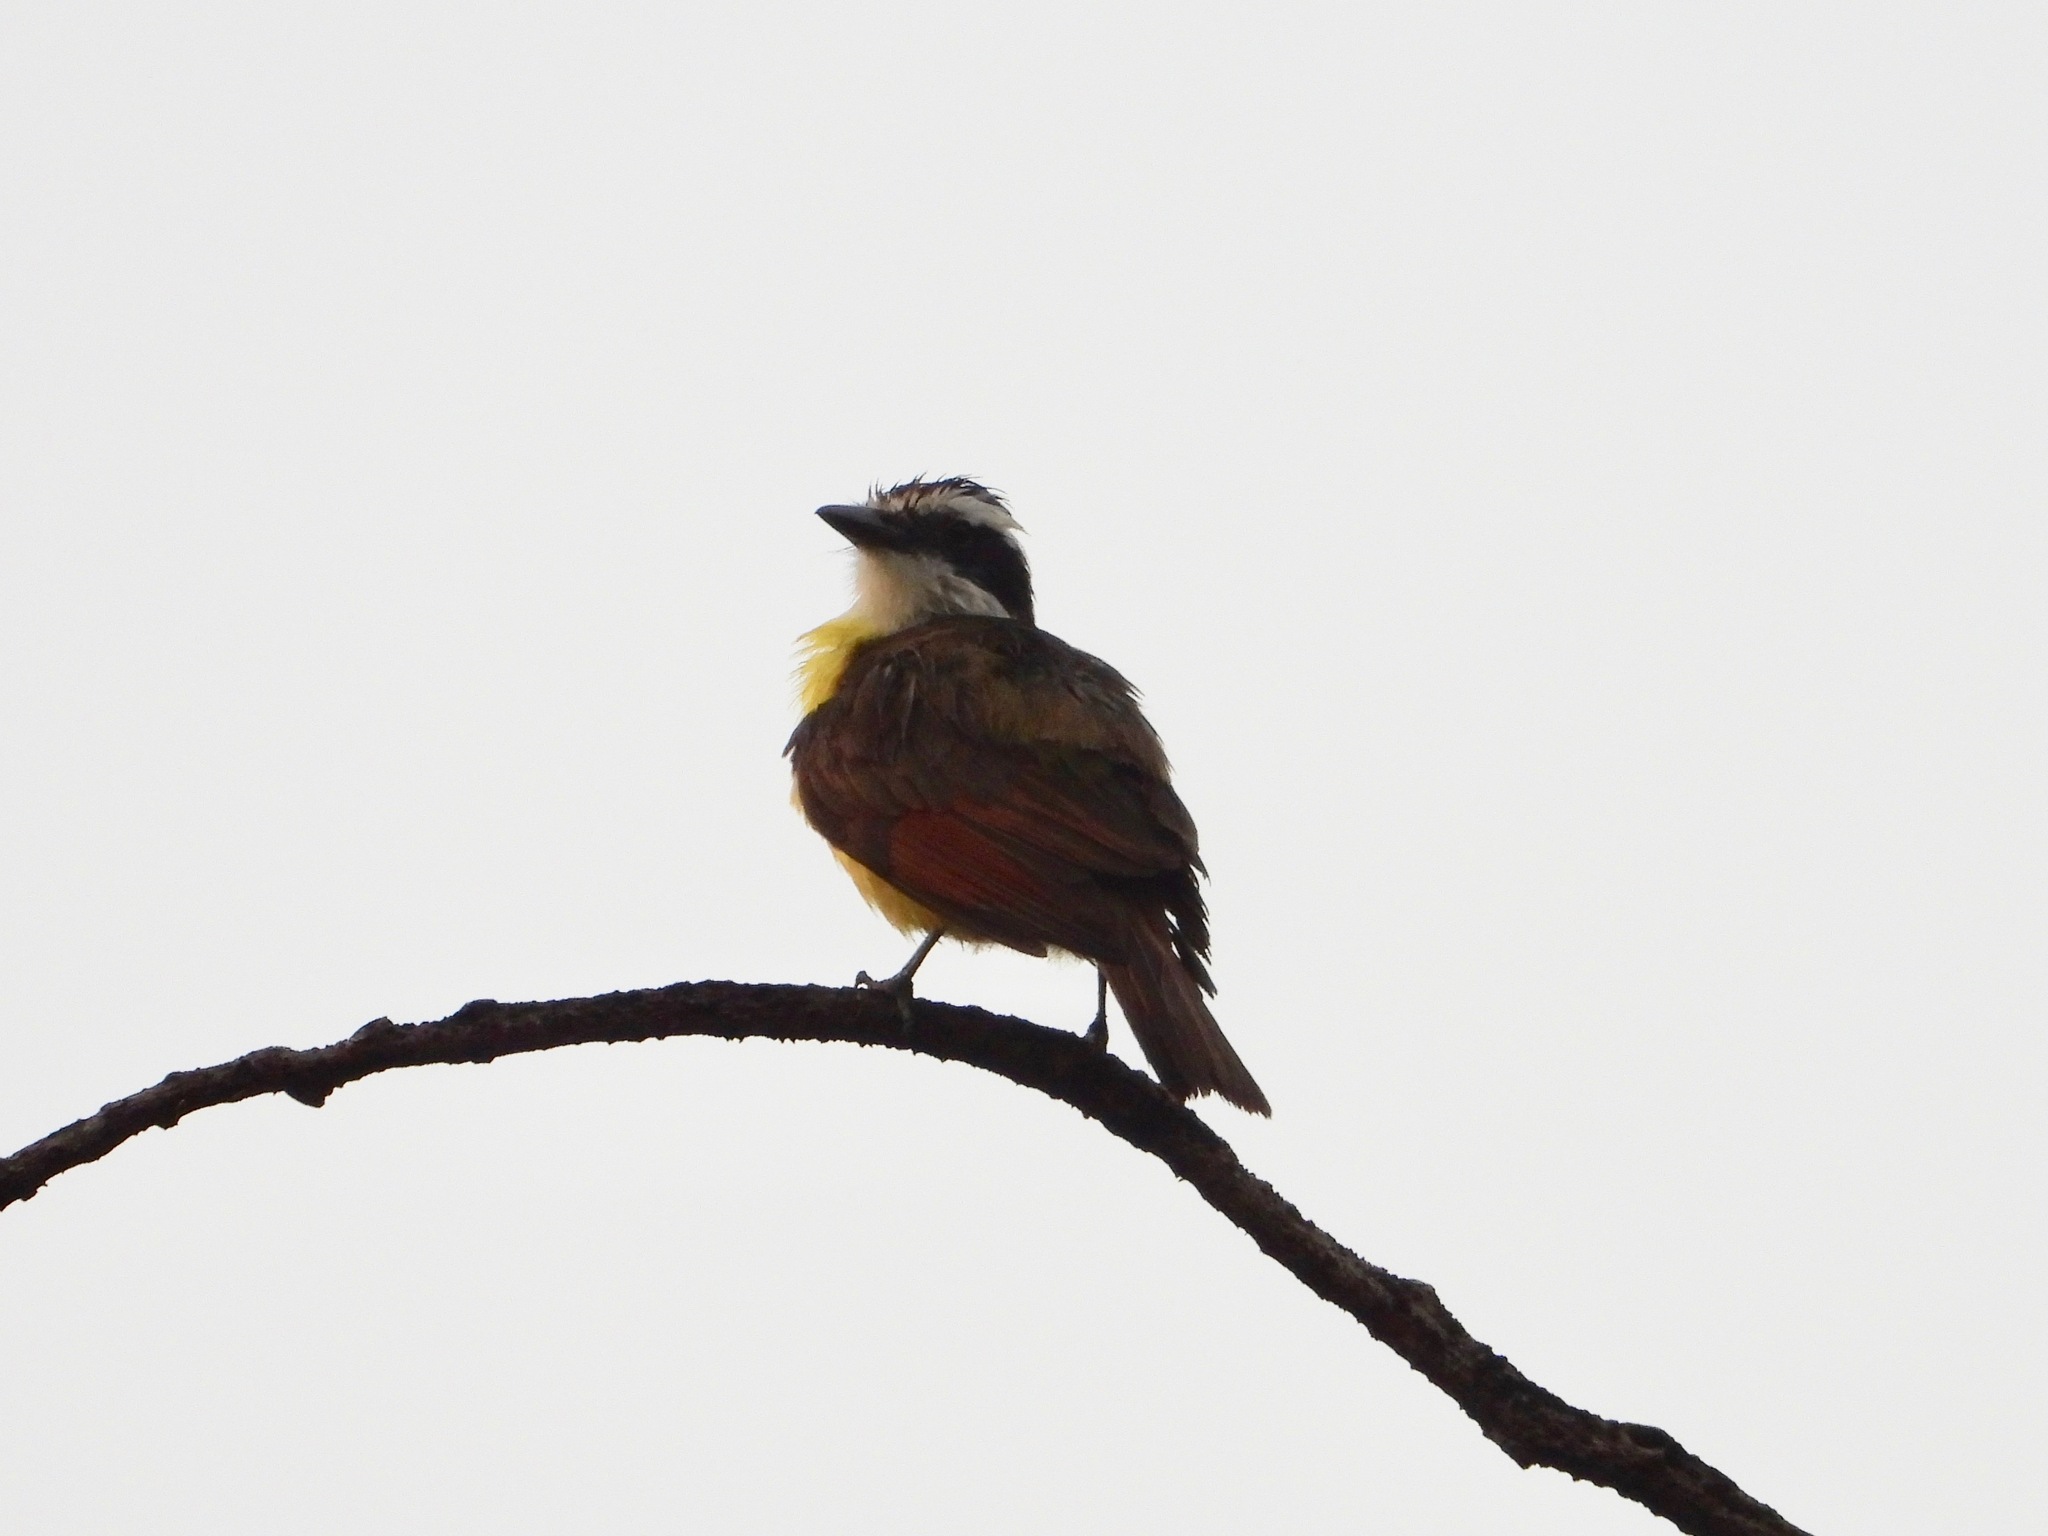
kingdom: Animalia
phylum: Chordata
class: Aves
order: Passeriformes
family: Tyrannidae
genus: Pitangus
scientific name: Pitangus sulphuratus
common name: Great kiskadee
